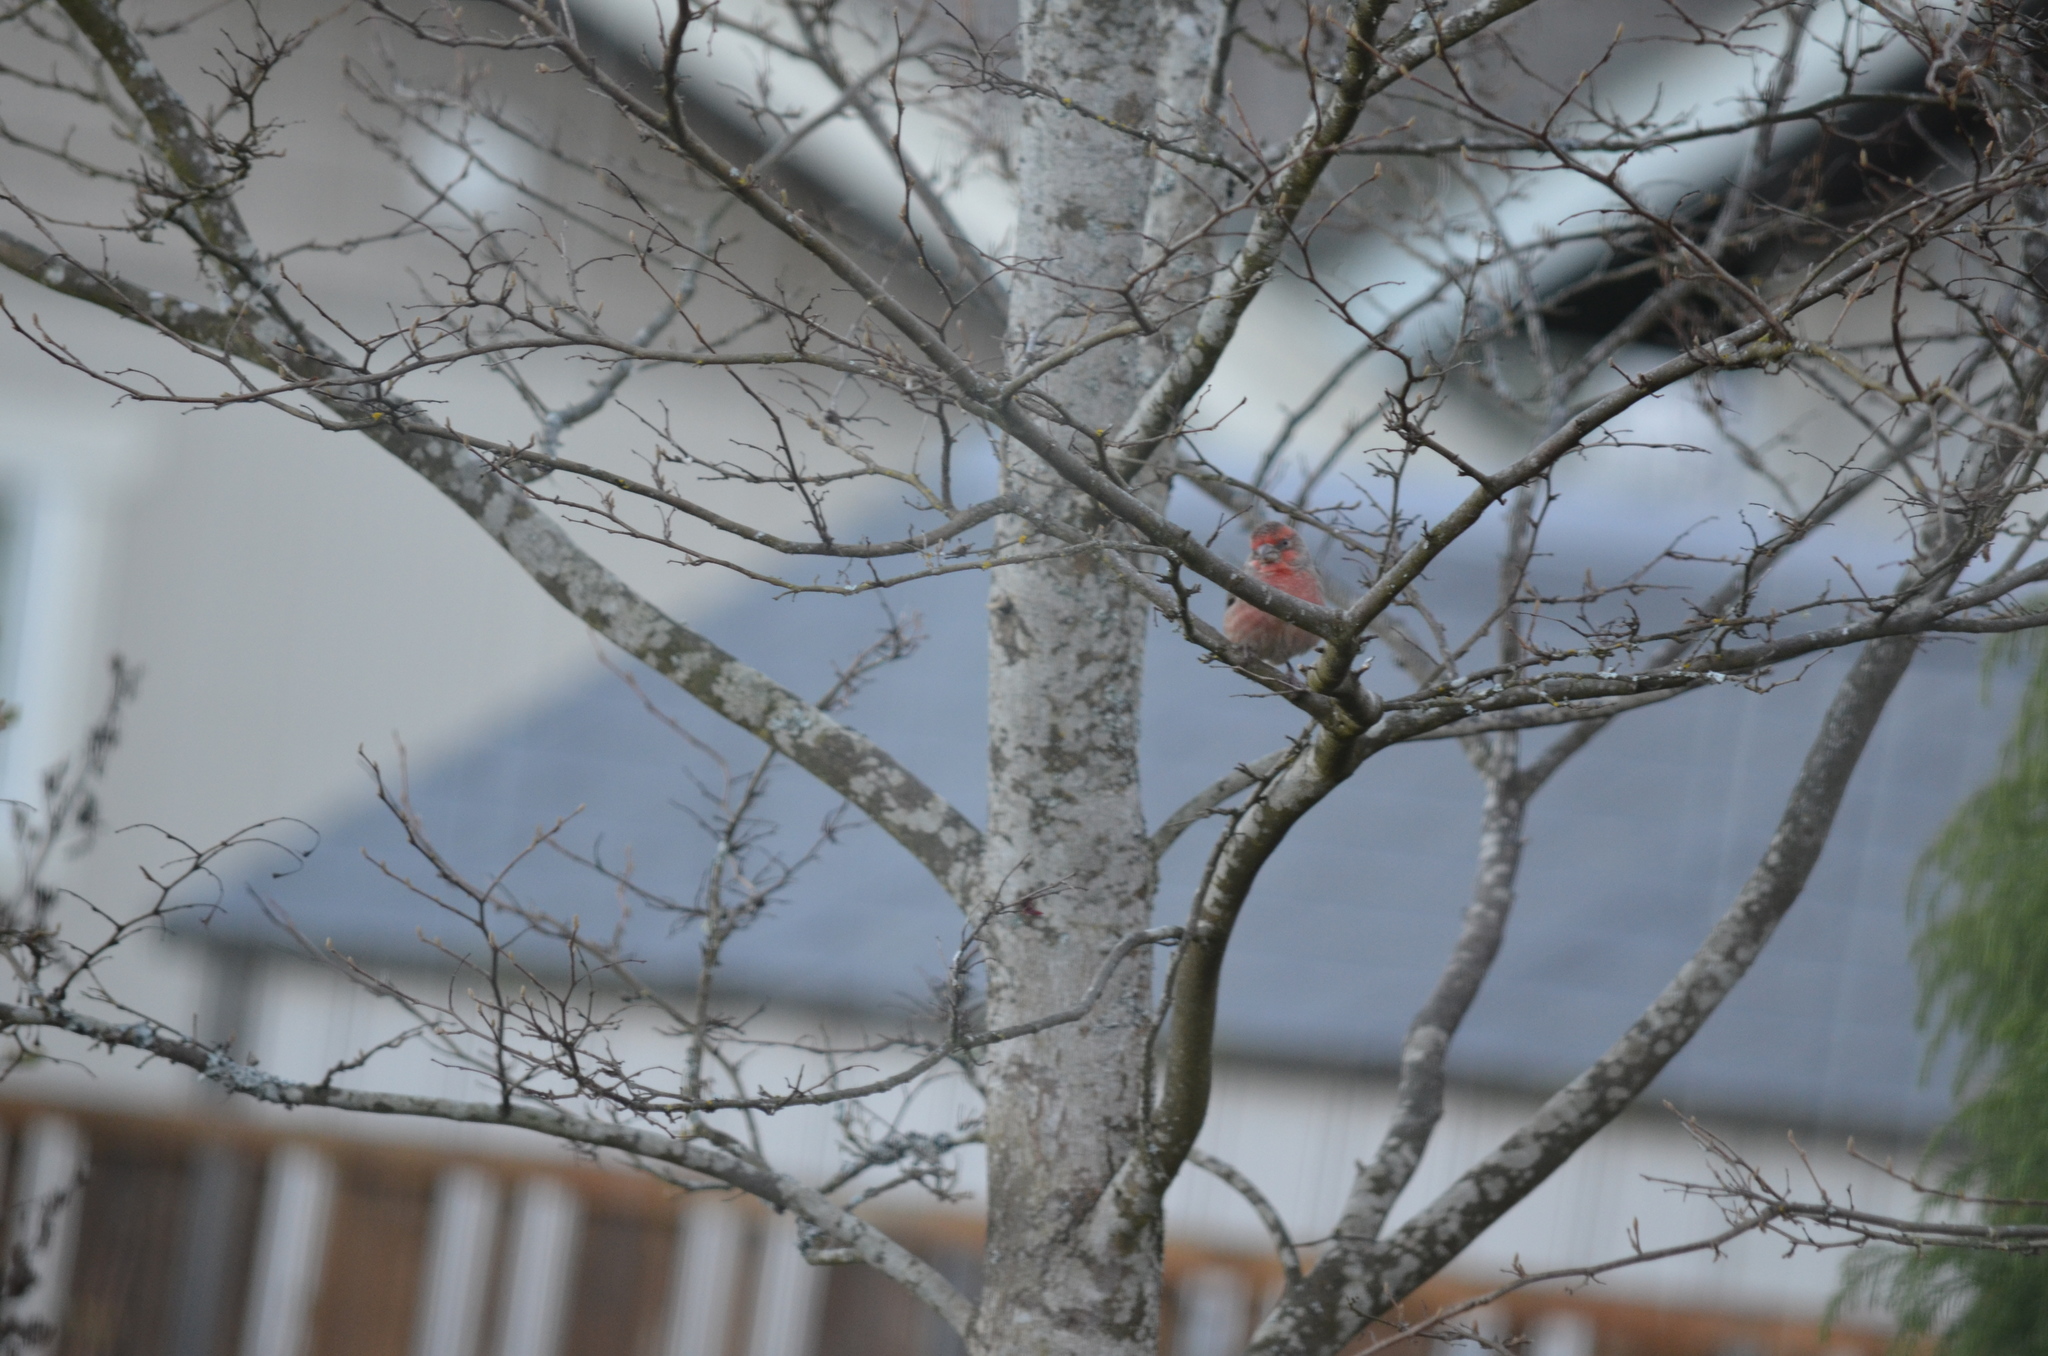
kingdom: Animalia
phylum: Chordata
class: Aves
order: Passeriformes
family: Fringillidae
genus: Haemorhous
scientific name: Haemorhous mexicanus
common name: House finch
